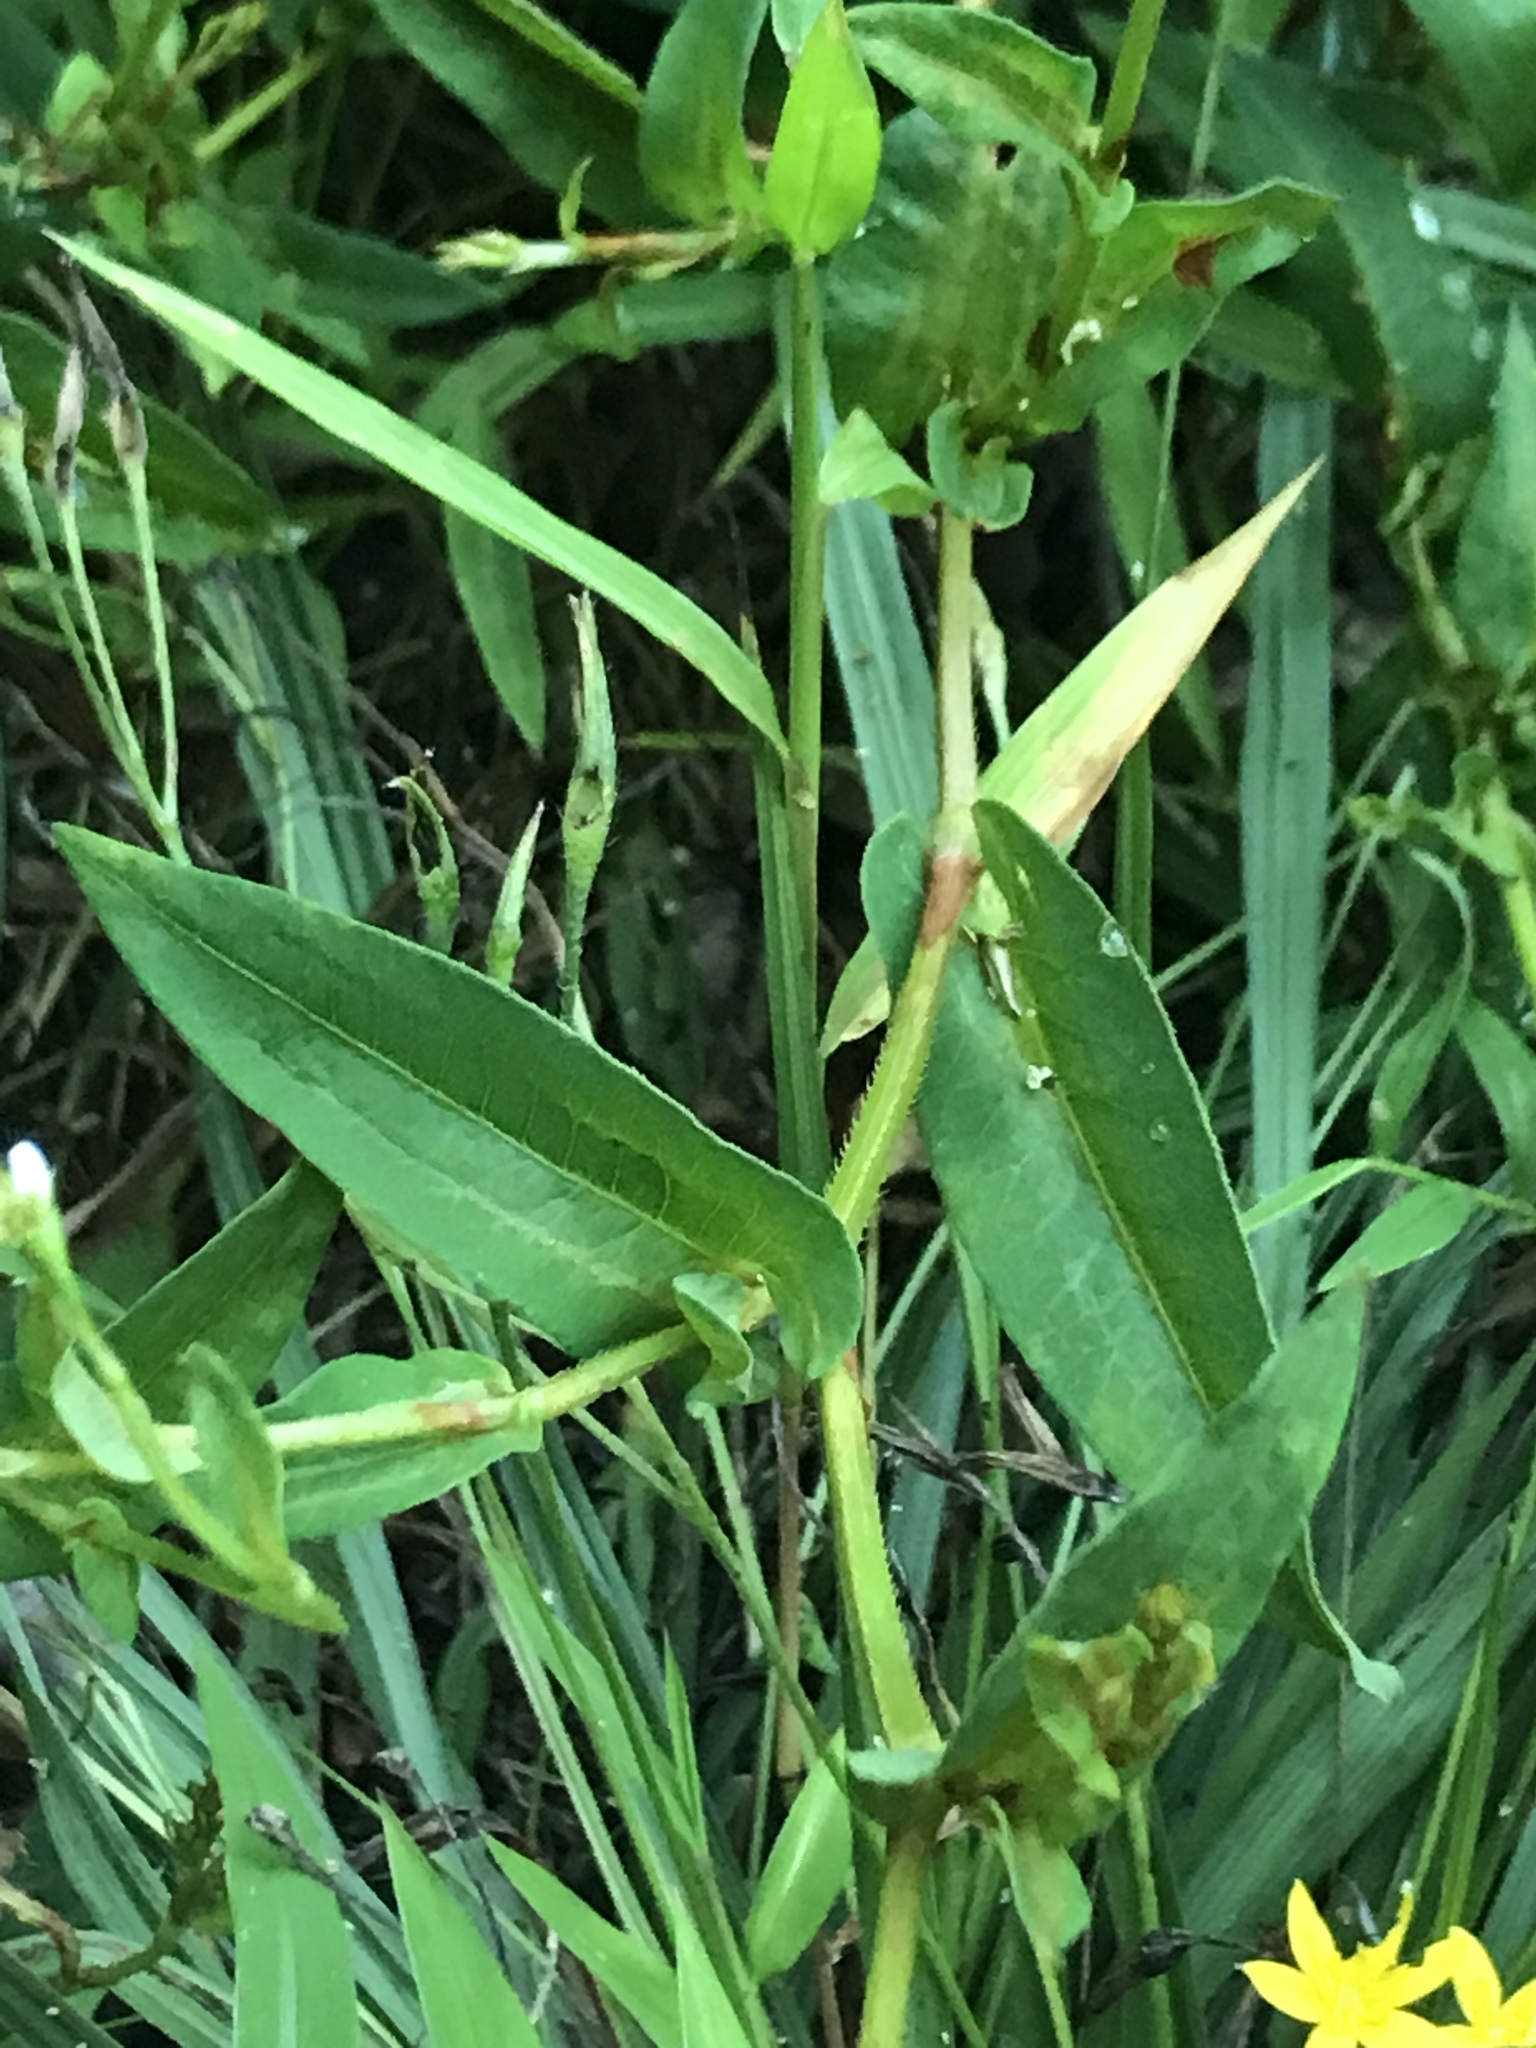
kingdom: Plantae
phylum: Tracheophyta
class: Magnoliopsida
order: Caryophyllales
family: Polygonaceae
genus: Persicaria
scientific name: Persicaria sagittata
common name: American tearthumb
